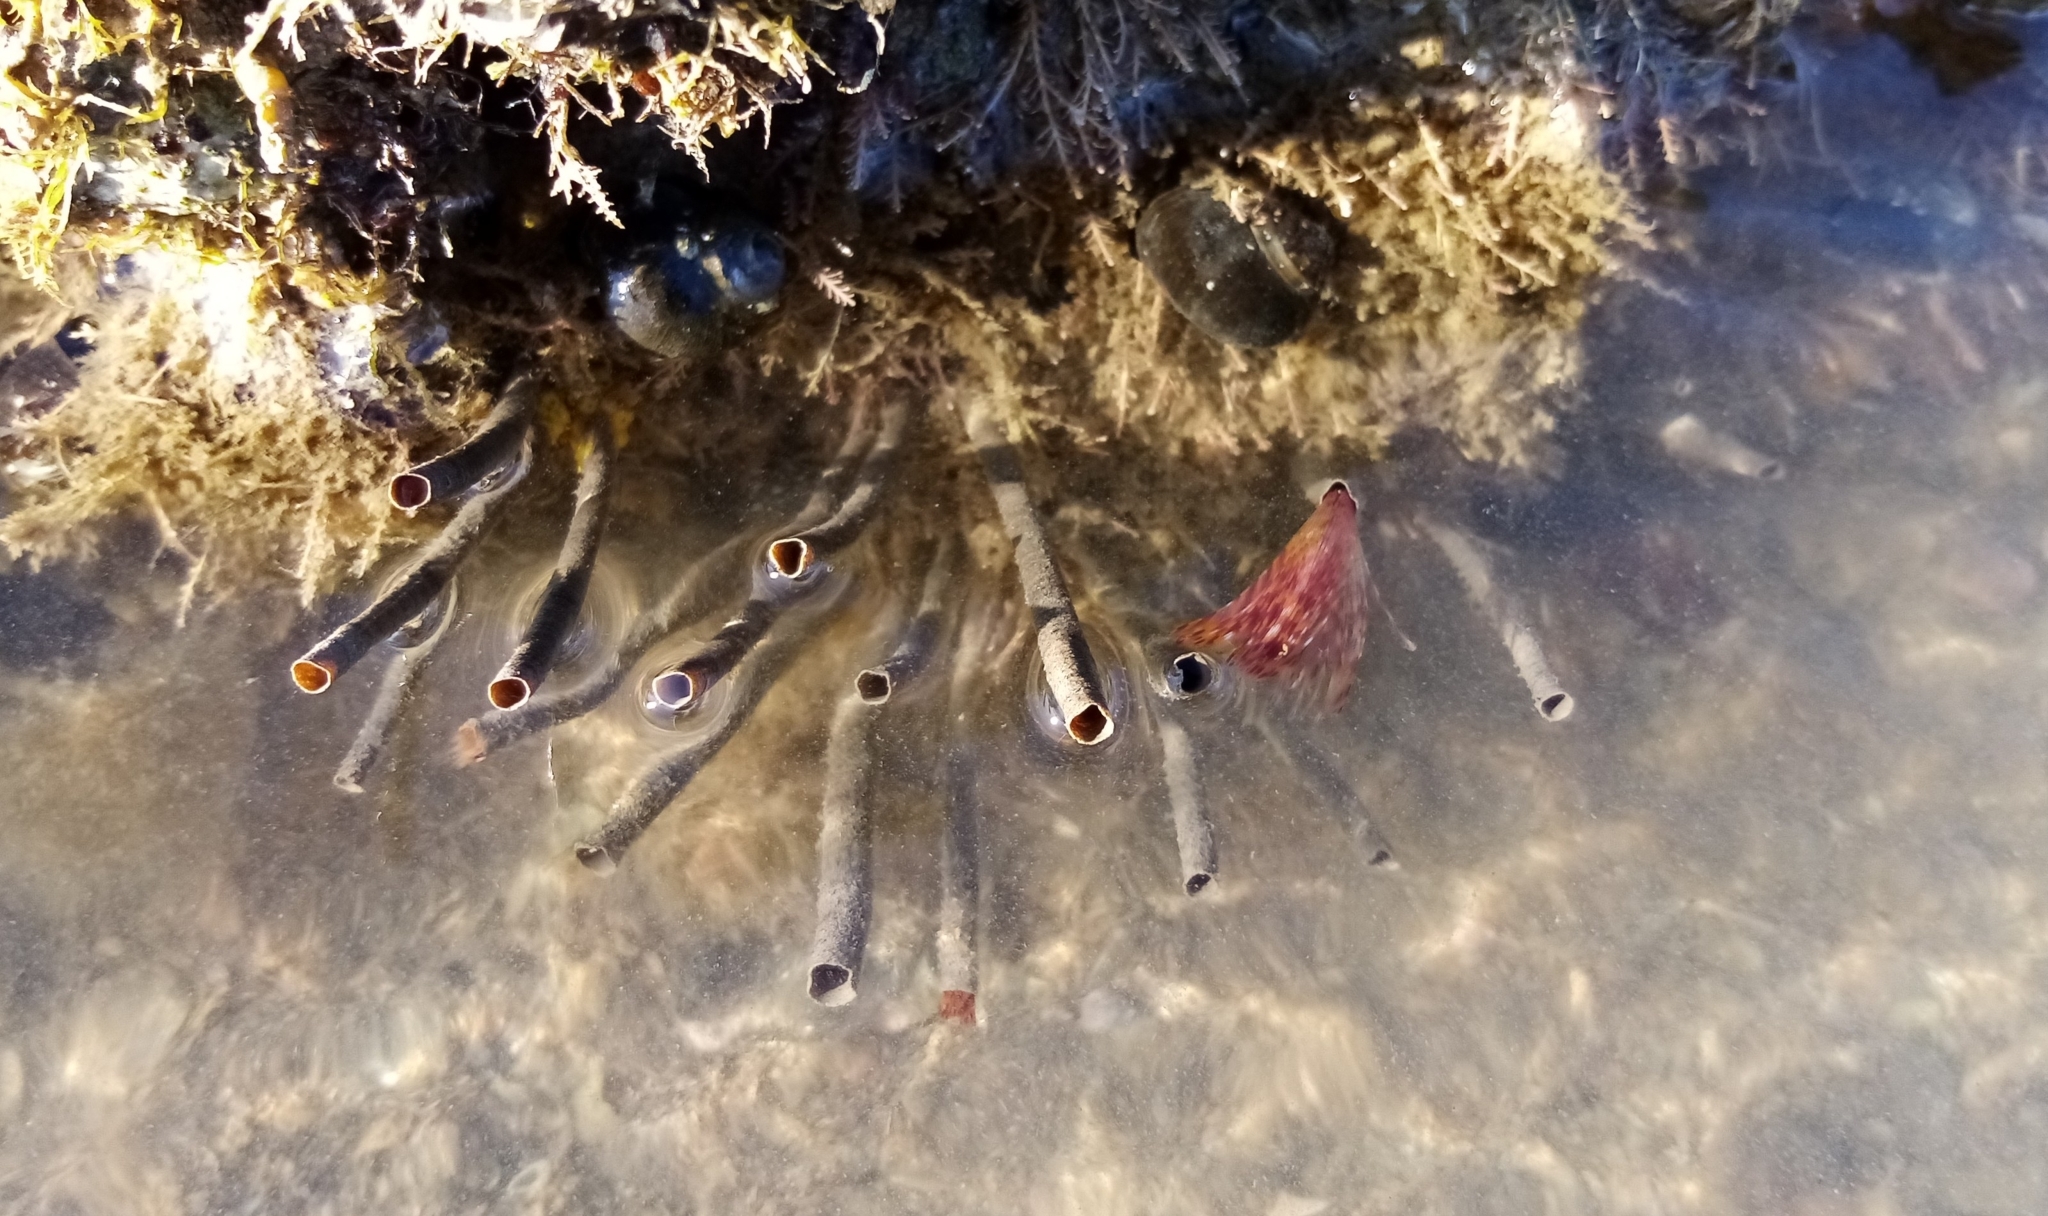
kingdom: Animalia
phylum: Annelida
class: Polychaeta
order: Sabellida
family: Sabellidae
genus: Sabella
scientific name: Sabella spallanzanii
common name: Feather duster worm
